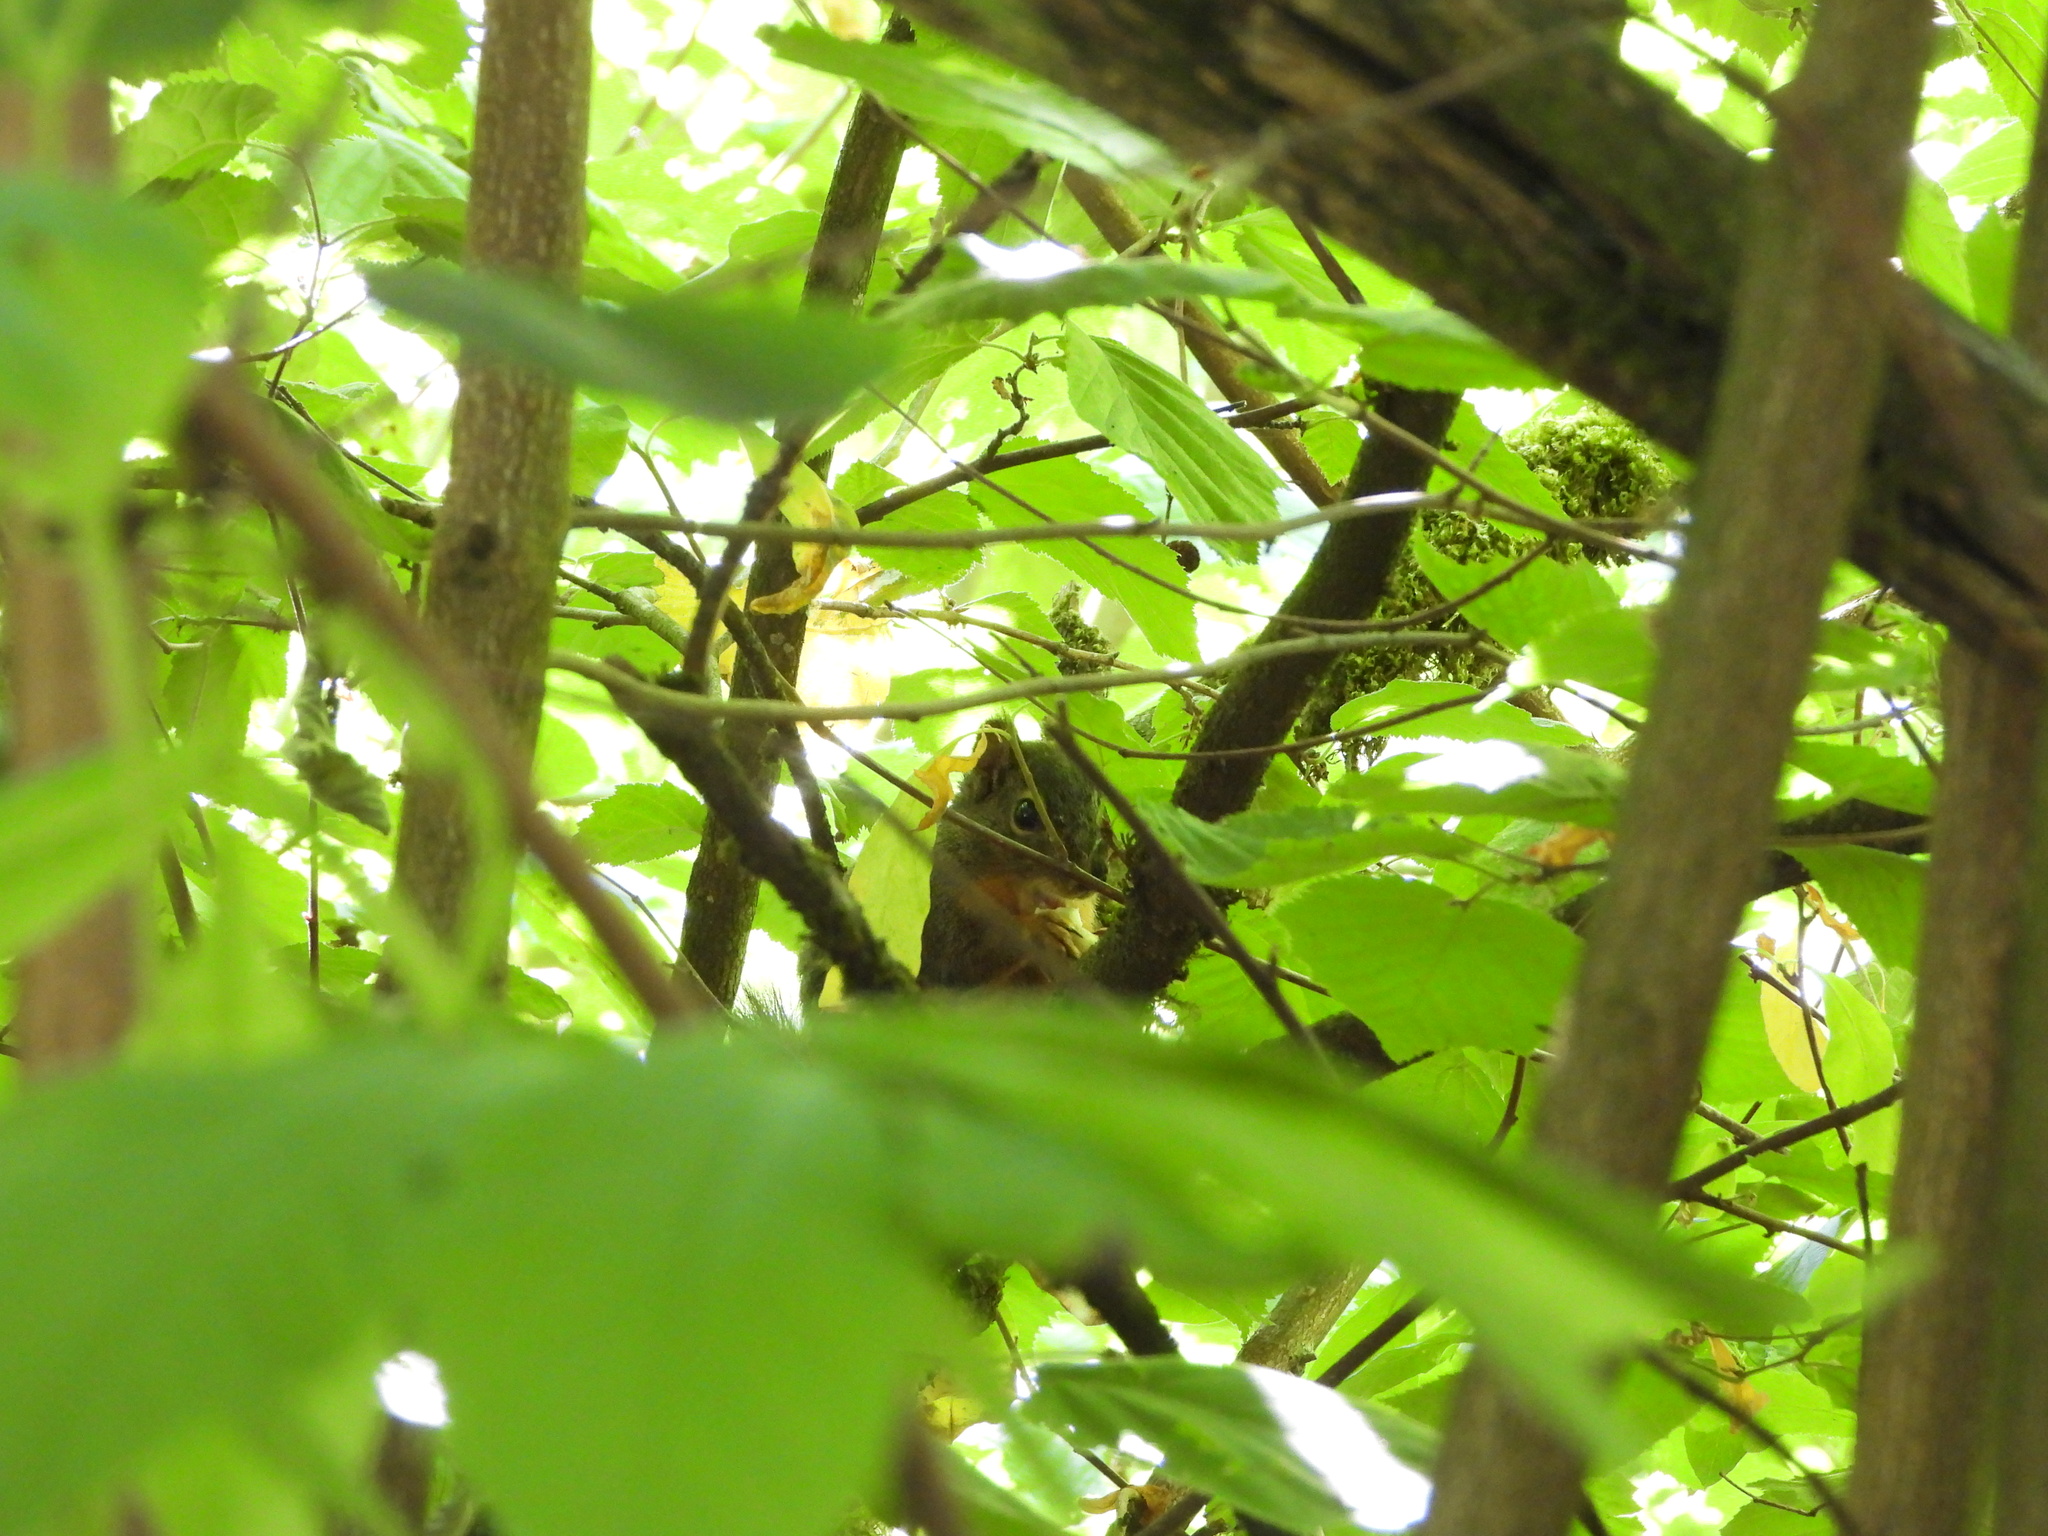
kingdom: Animalia
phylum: Chordata
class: Mammalia
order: Rodentia
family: Sciuridae
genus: Tamiasciurus
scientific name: Tamiasciurus douglasii
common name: Douglas's squirrel
